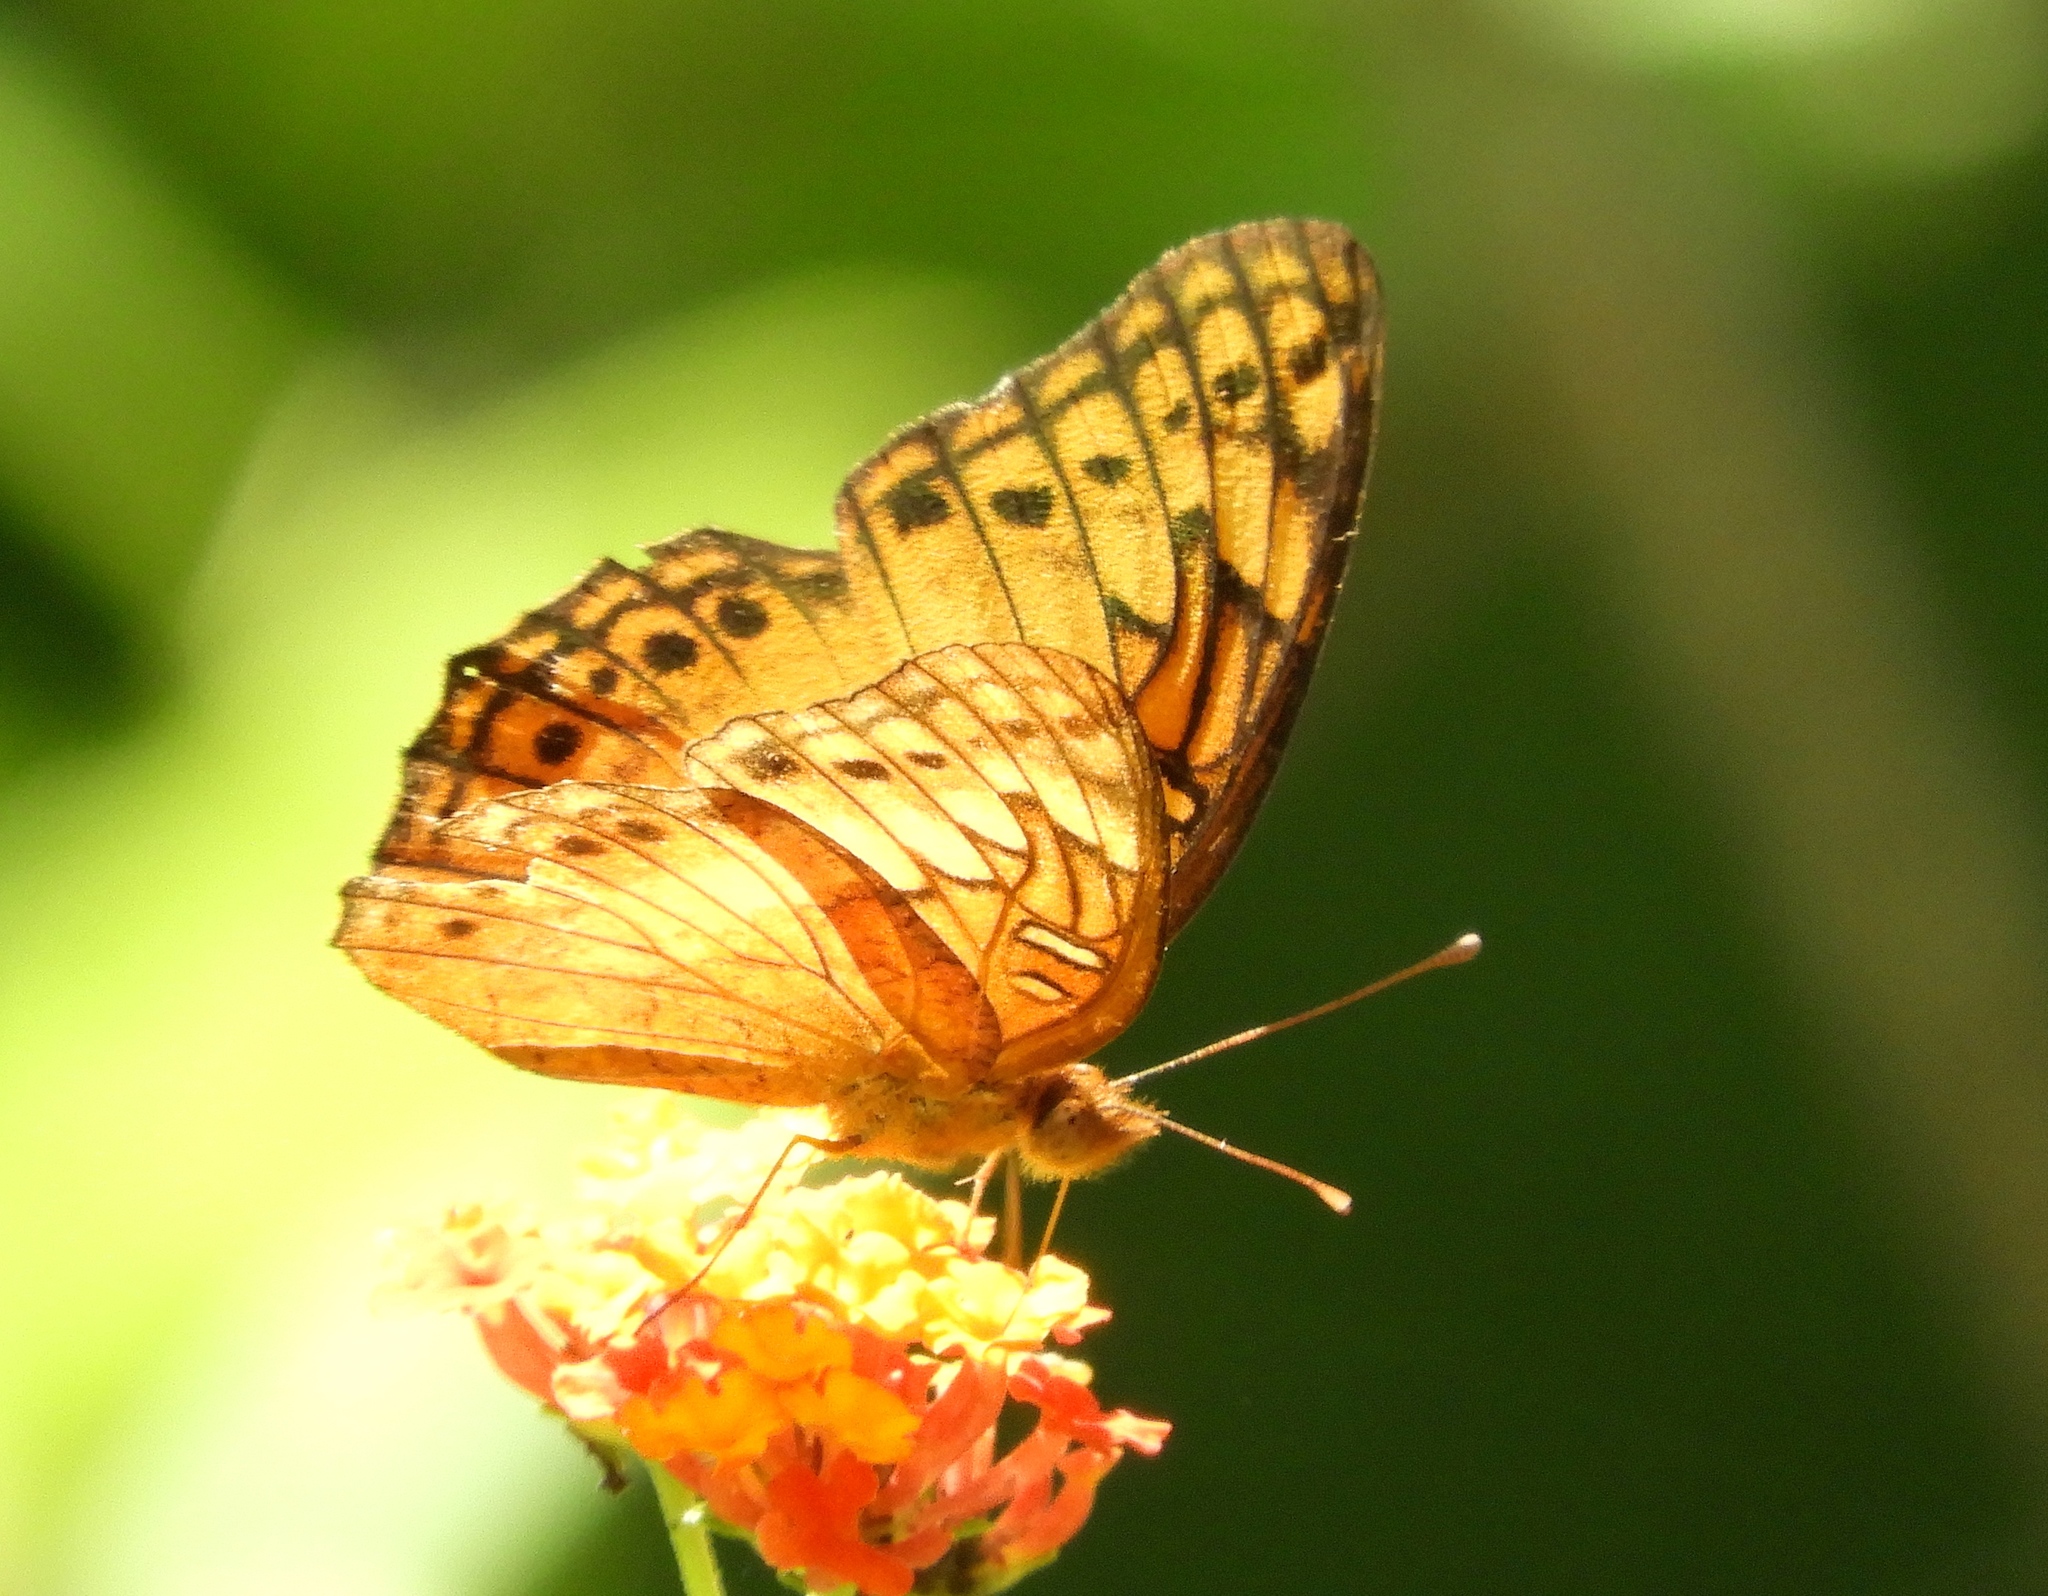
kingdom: Animalia
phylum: Arthropoda
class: Insecta
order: Lepidoptera
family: Nymphalidae
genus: Euptoieta
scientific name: Euptoieta hegesia
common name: Mexican fritillary
